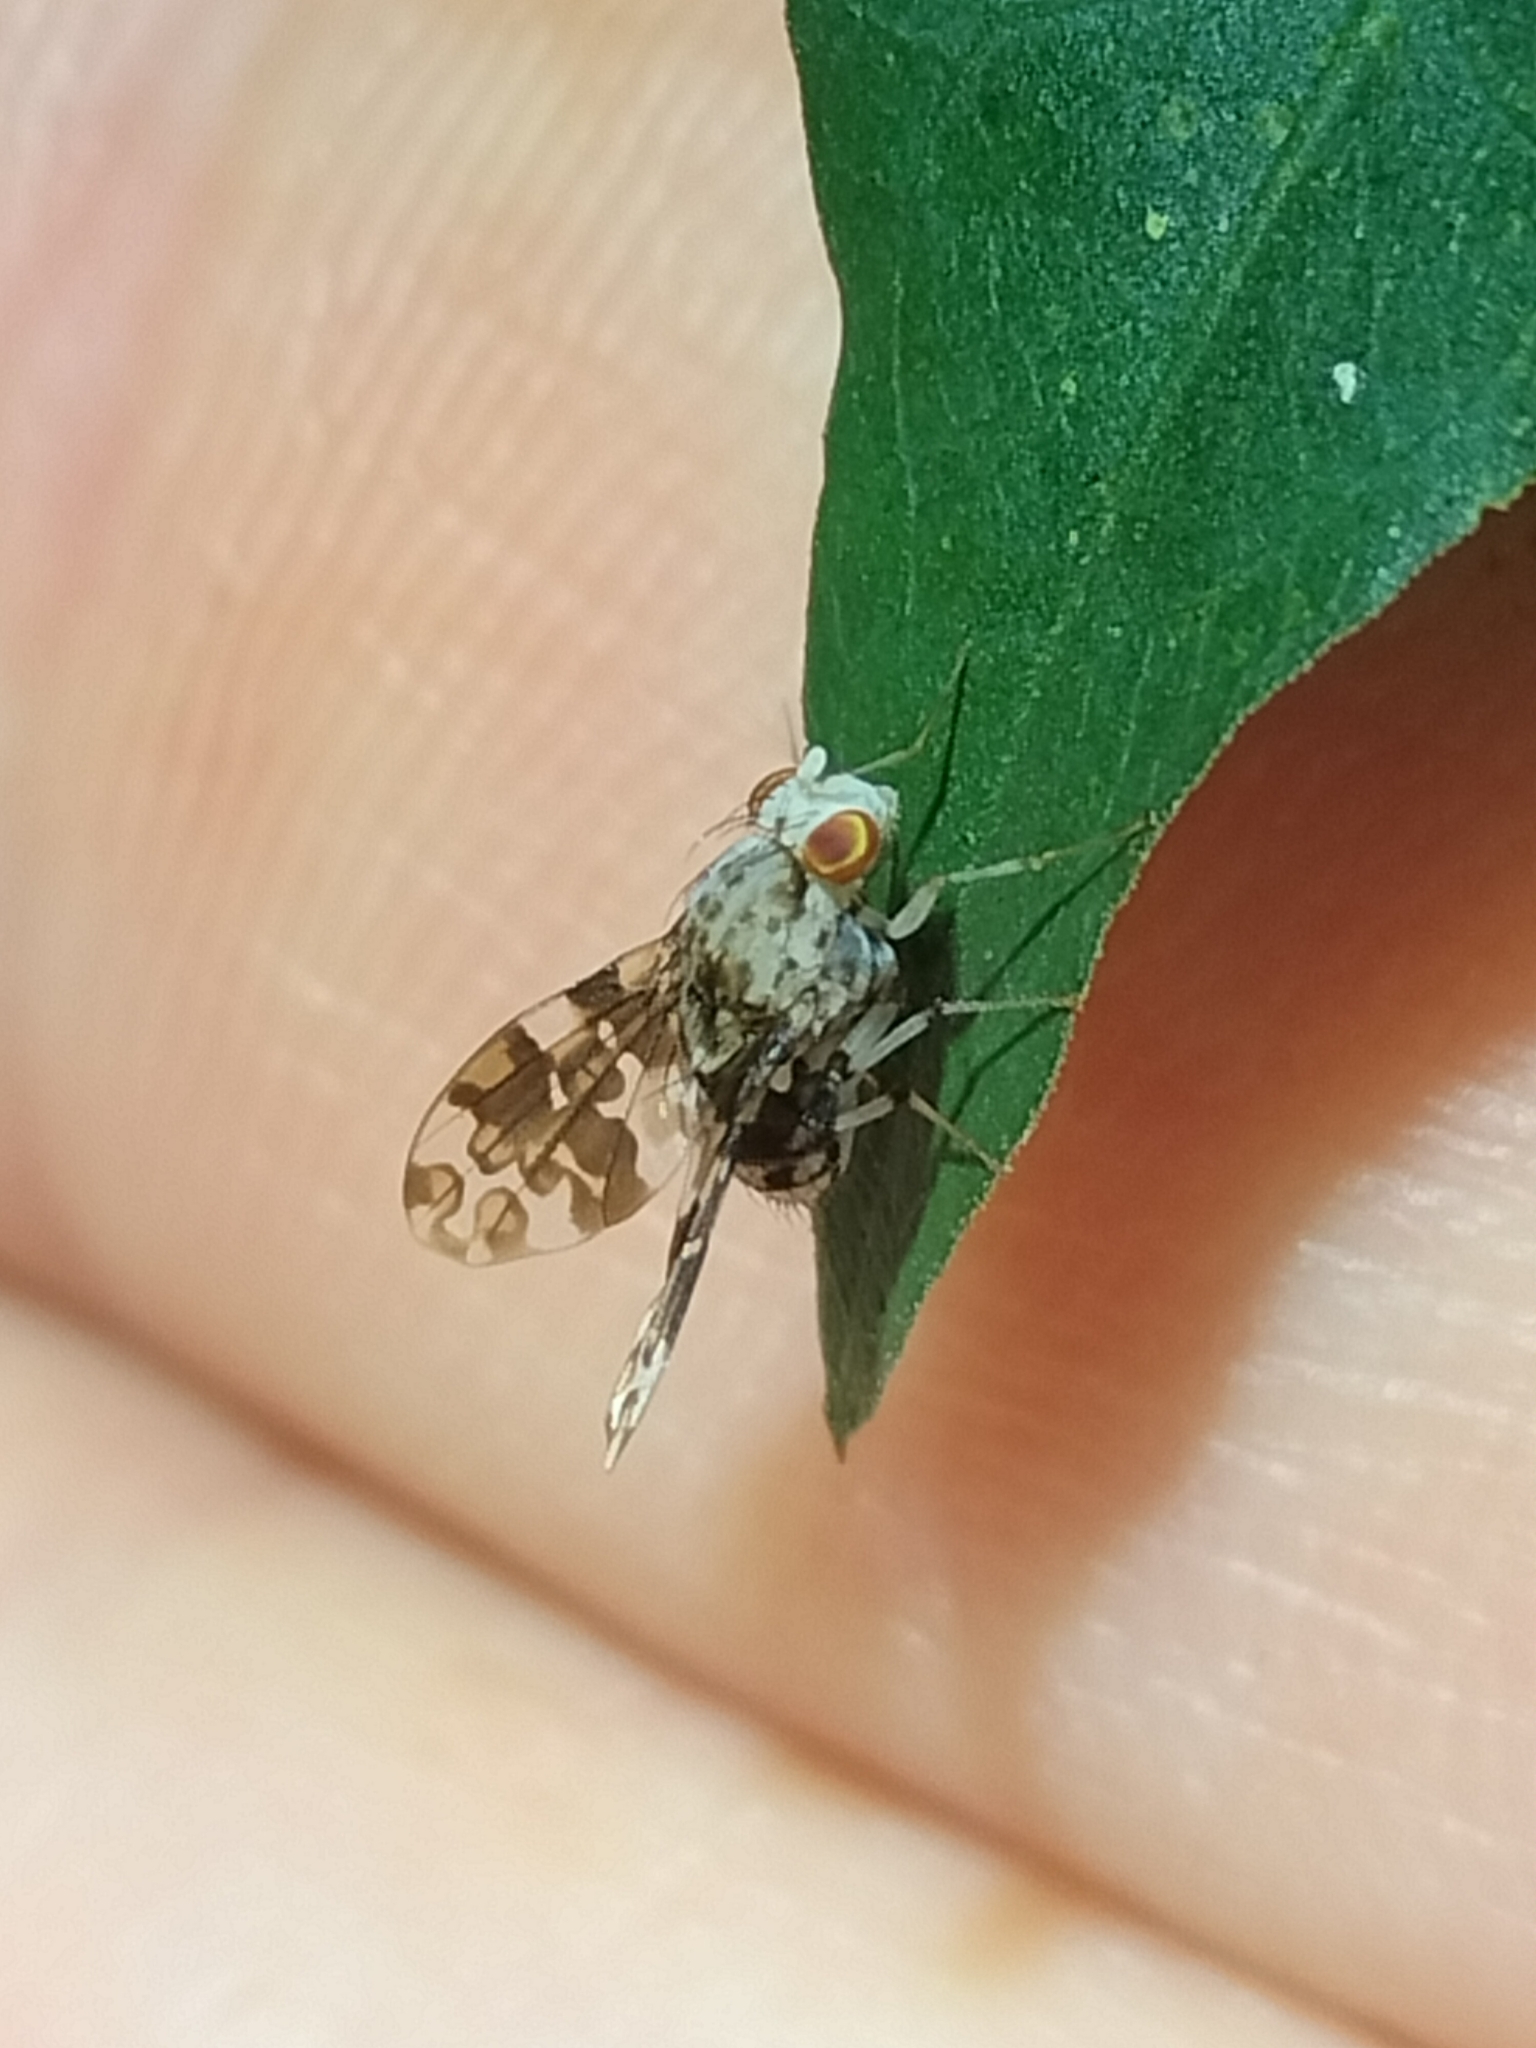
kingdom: Animalia
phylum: Arthropoda
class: Insecta
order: Diptera
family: Lauxaniidae
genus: Mettinia
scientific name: Mettinia suboceliifera
